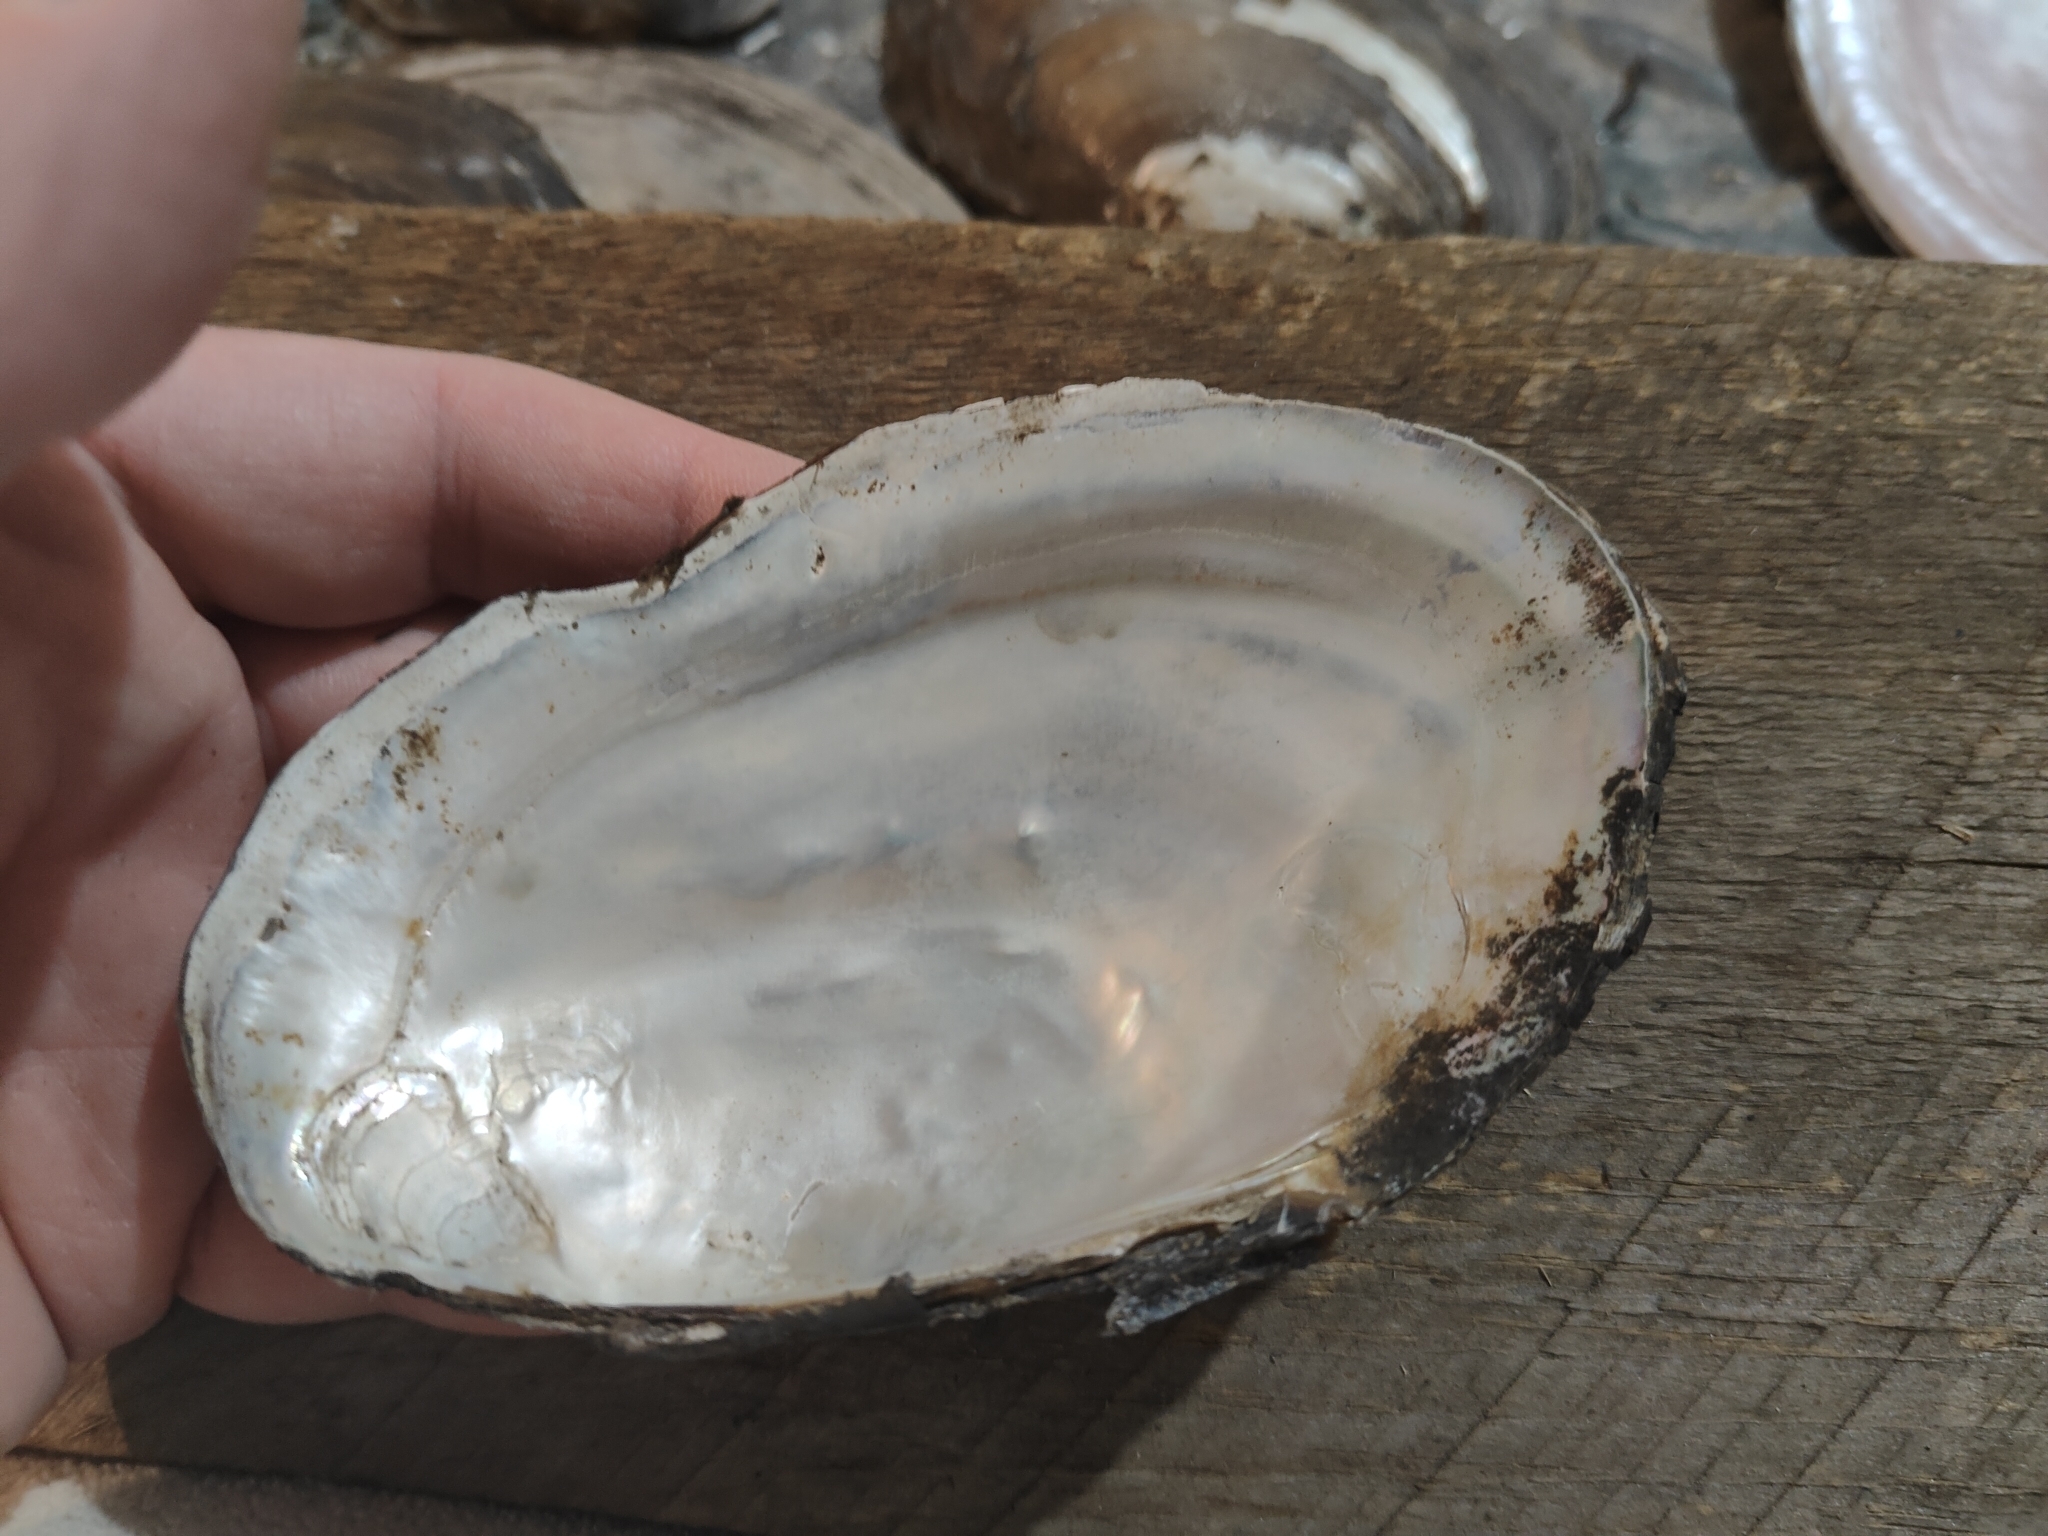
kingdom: Animalia
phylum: Mollusca
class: Bivalvia
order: Unionida
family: Unionidae
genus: Potamilus
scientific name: Potamilus fragilis
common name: Fragile papershell
